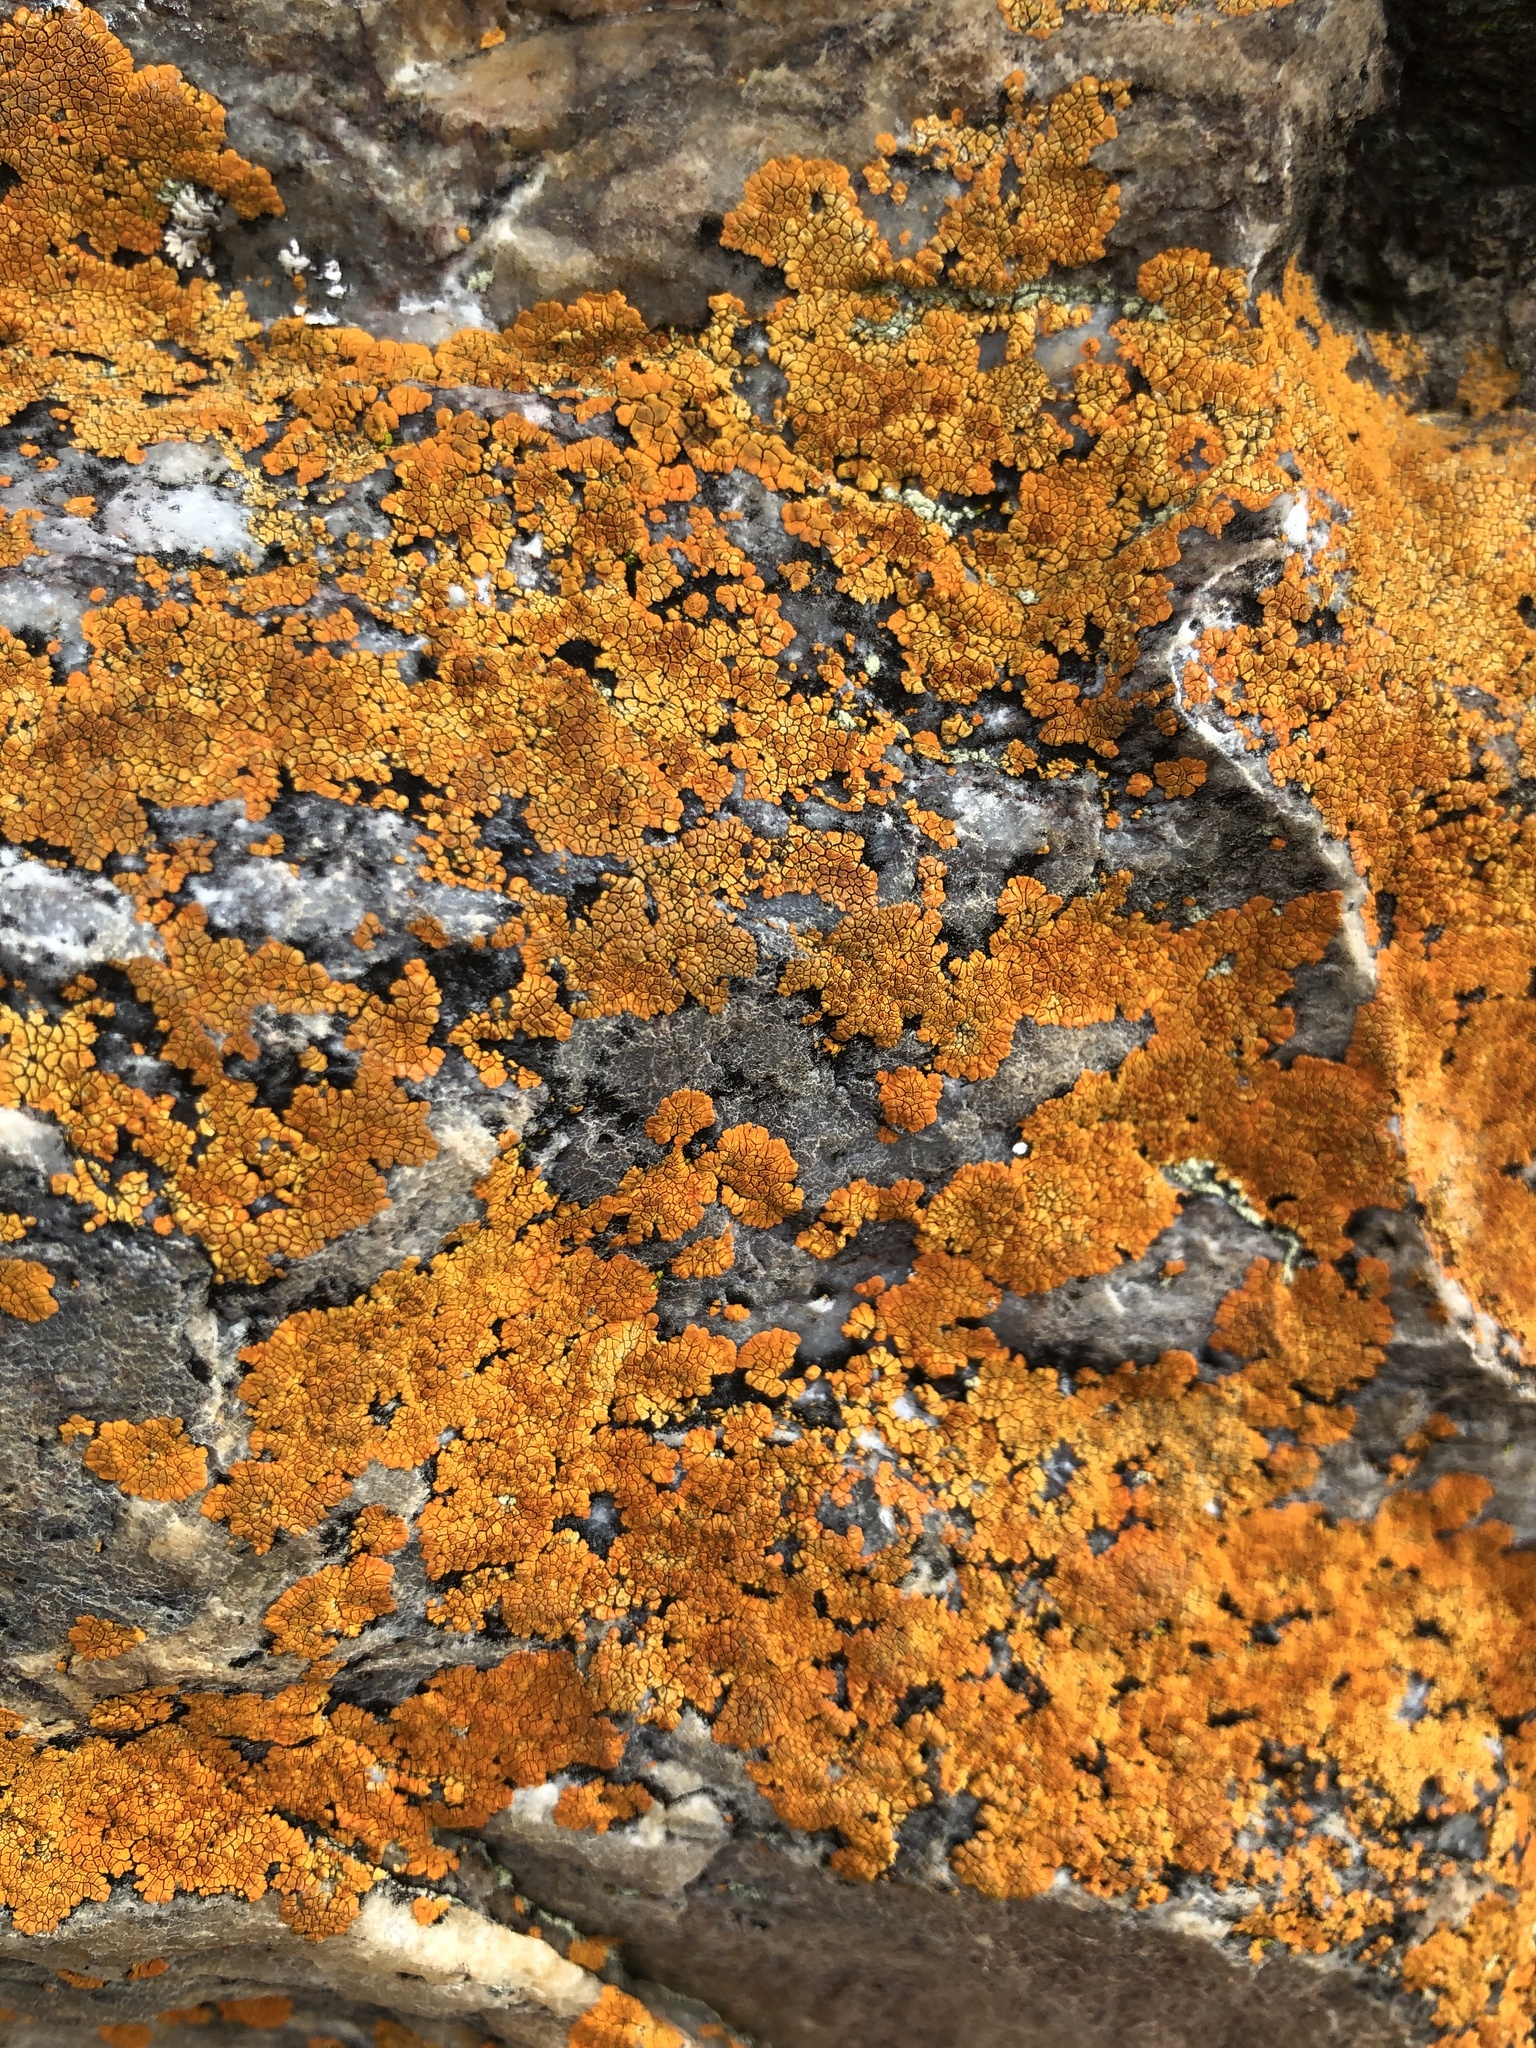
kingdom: Fungi
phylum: Ascomycota
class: Lecanoromycetes
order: Teloschistales
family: Teloschistaceae
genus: Neobrownliella
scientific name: Neobrownliella cinnabarina
